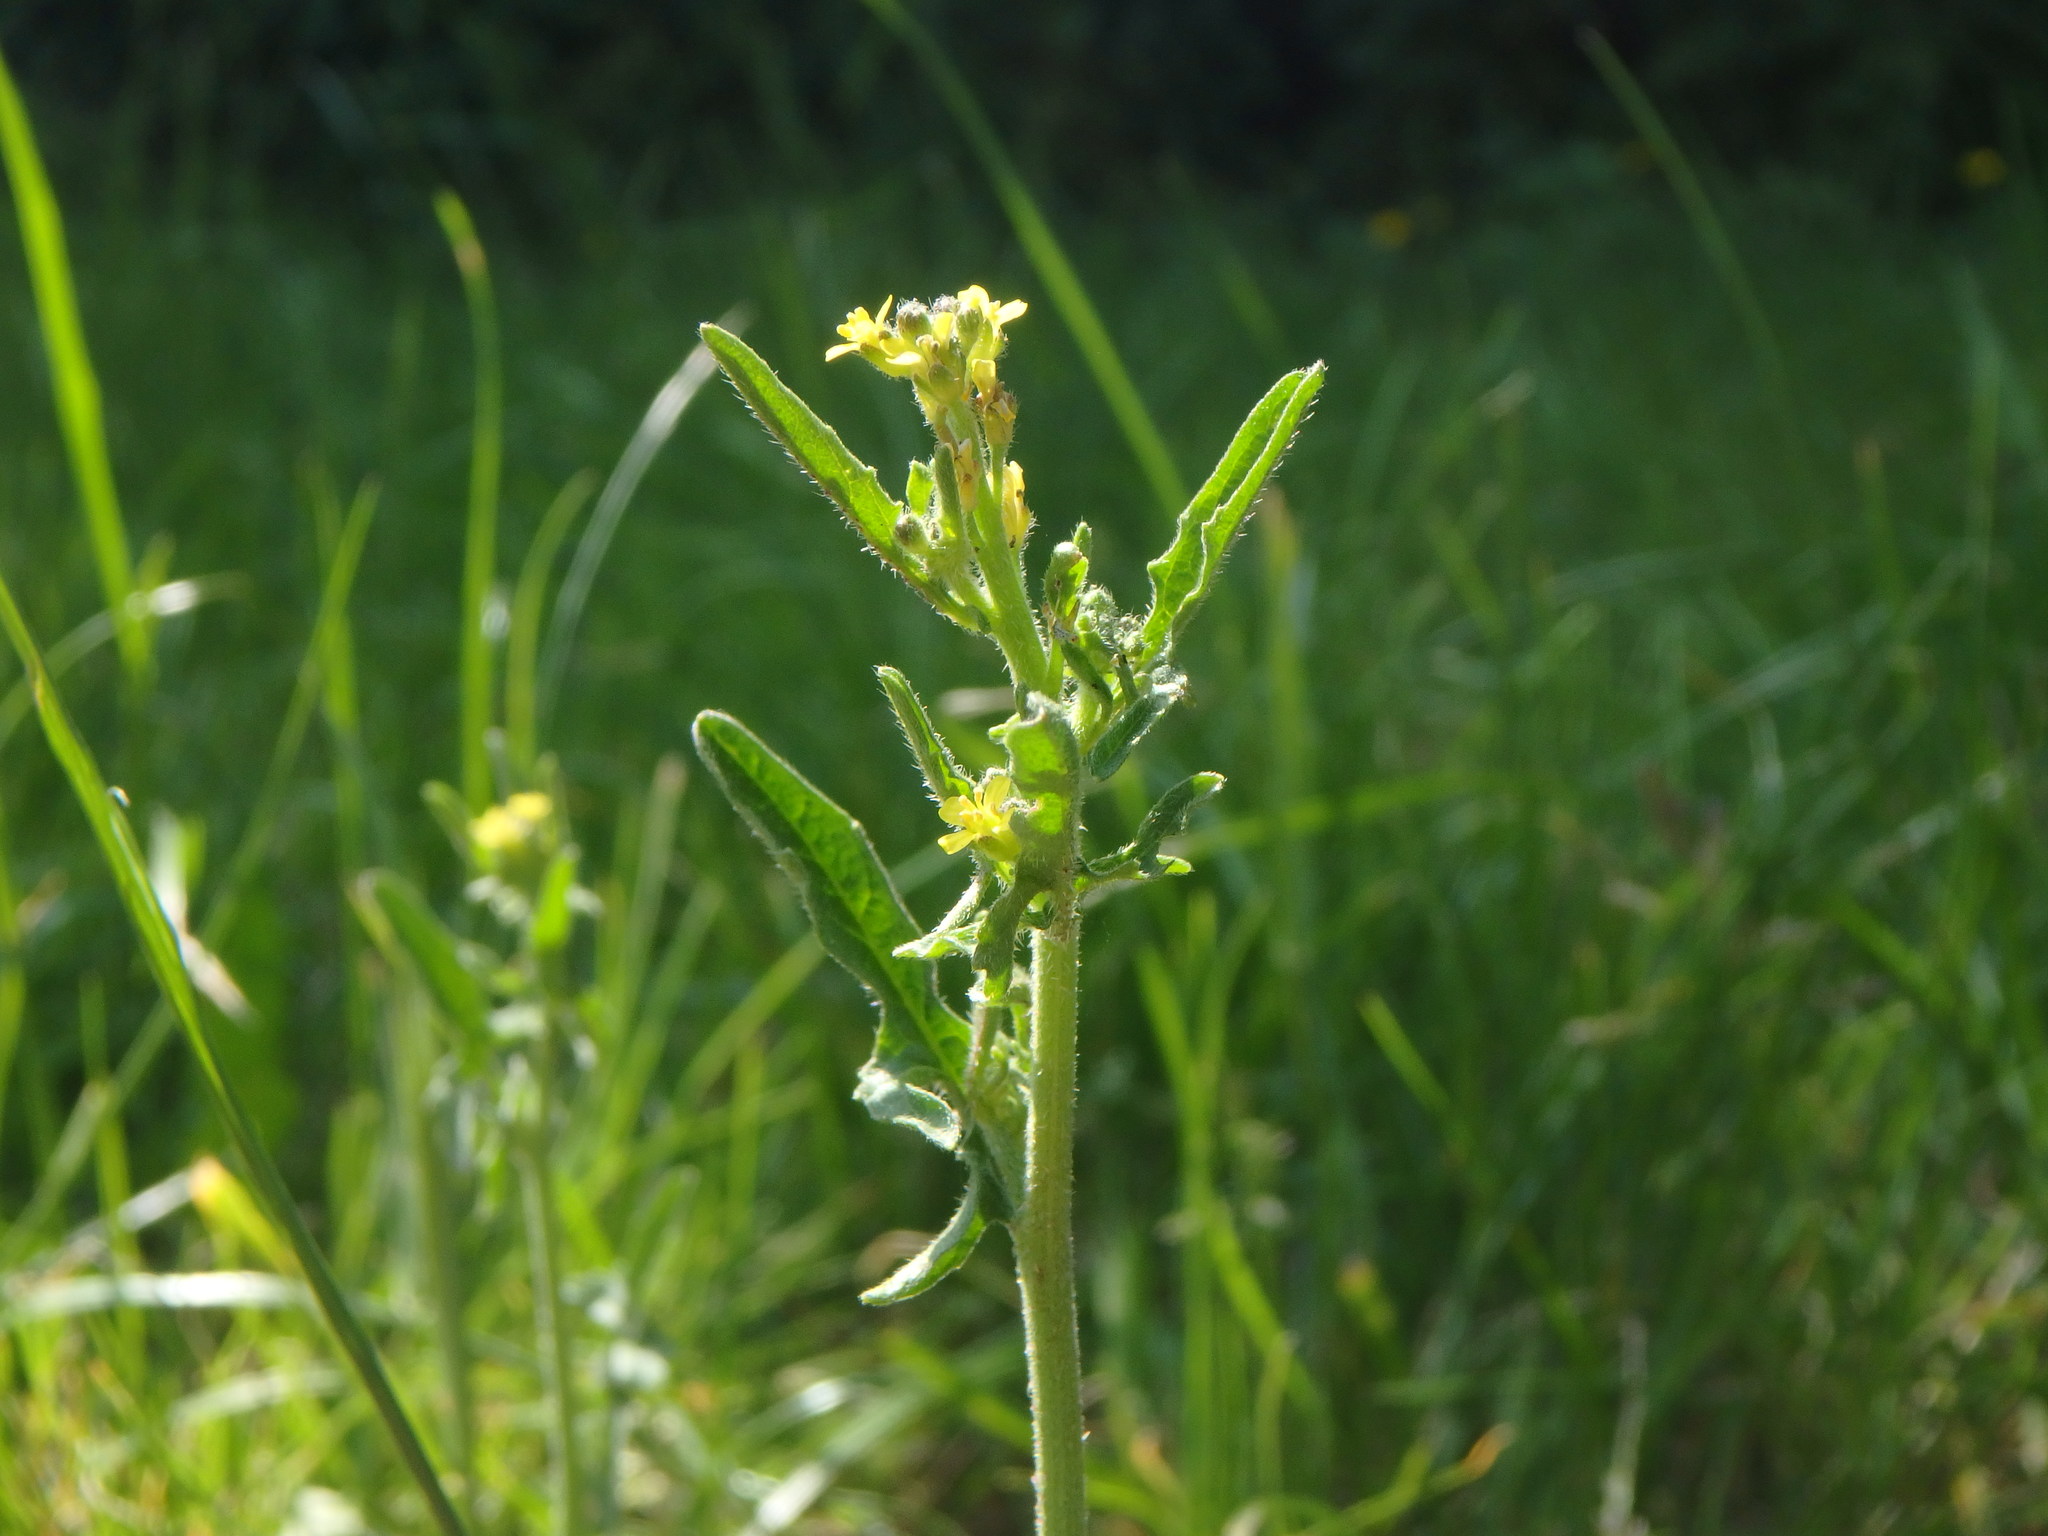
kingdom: Plantae
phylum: Tracheophyta
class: Magnoliopsida
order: Brassicales
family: Brassicaceae
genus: Sisymbrium
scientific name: Sisymbrium officinale
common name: Hedge mustard
